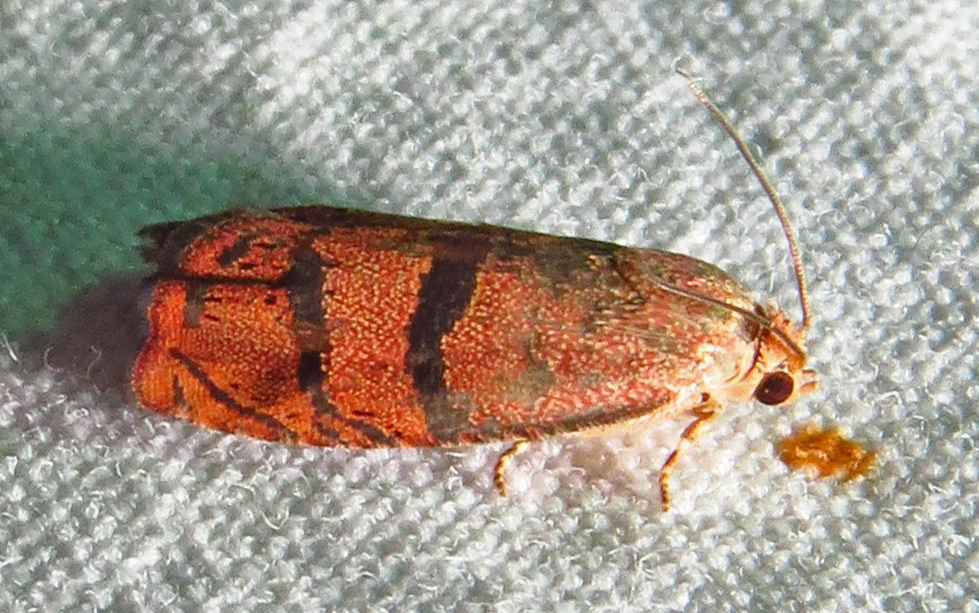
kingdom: Animalia
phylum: Arthropoda
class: Insecta
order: Lepidoptera
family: Tortricidae
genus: Cydia
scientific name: Cydia latiferreana
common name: Filbertworm moth
